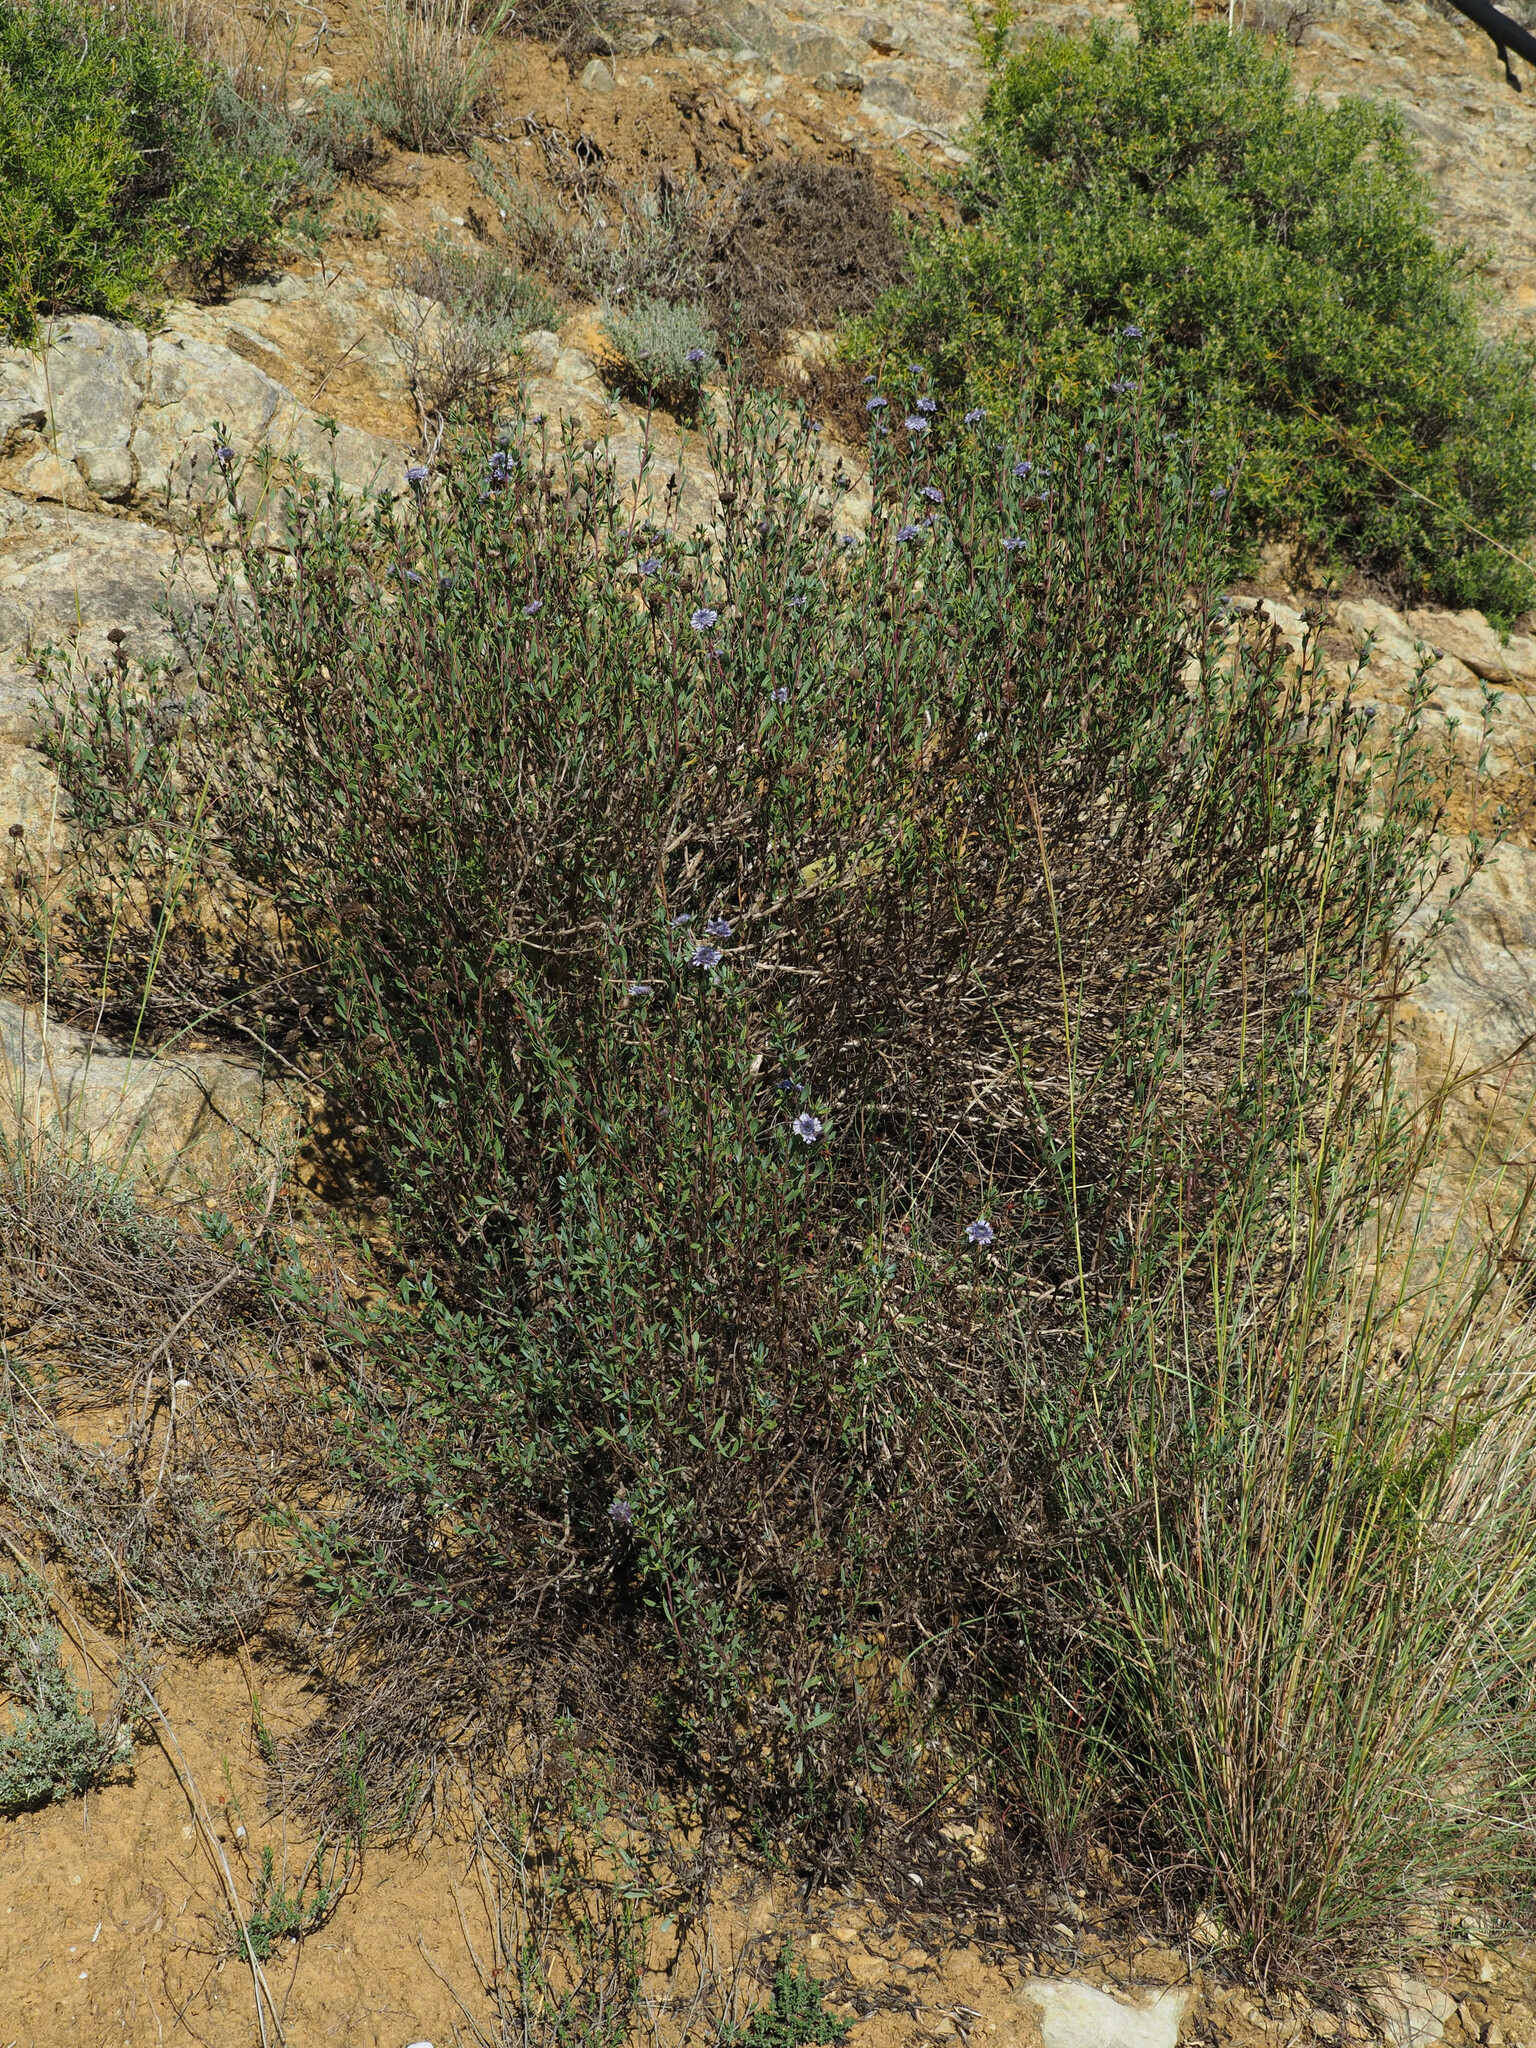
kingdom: Plantae
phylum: Tracheophyta
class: Magnoliopsida
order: Lamiales
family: Plantaginaceae
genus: Globularia
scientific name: Globularia alypum
